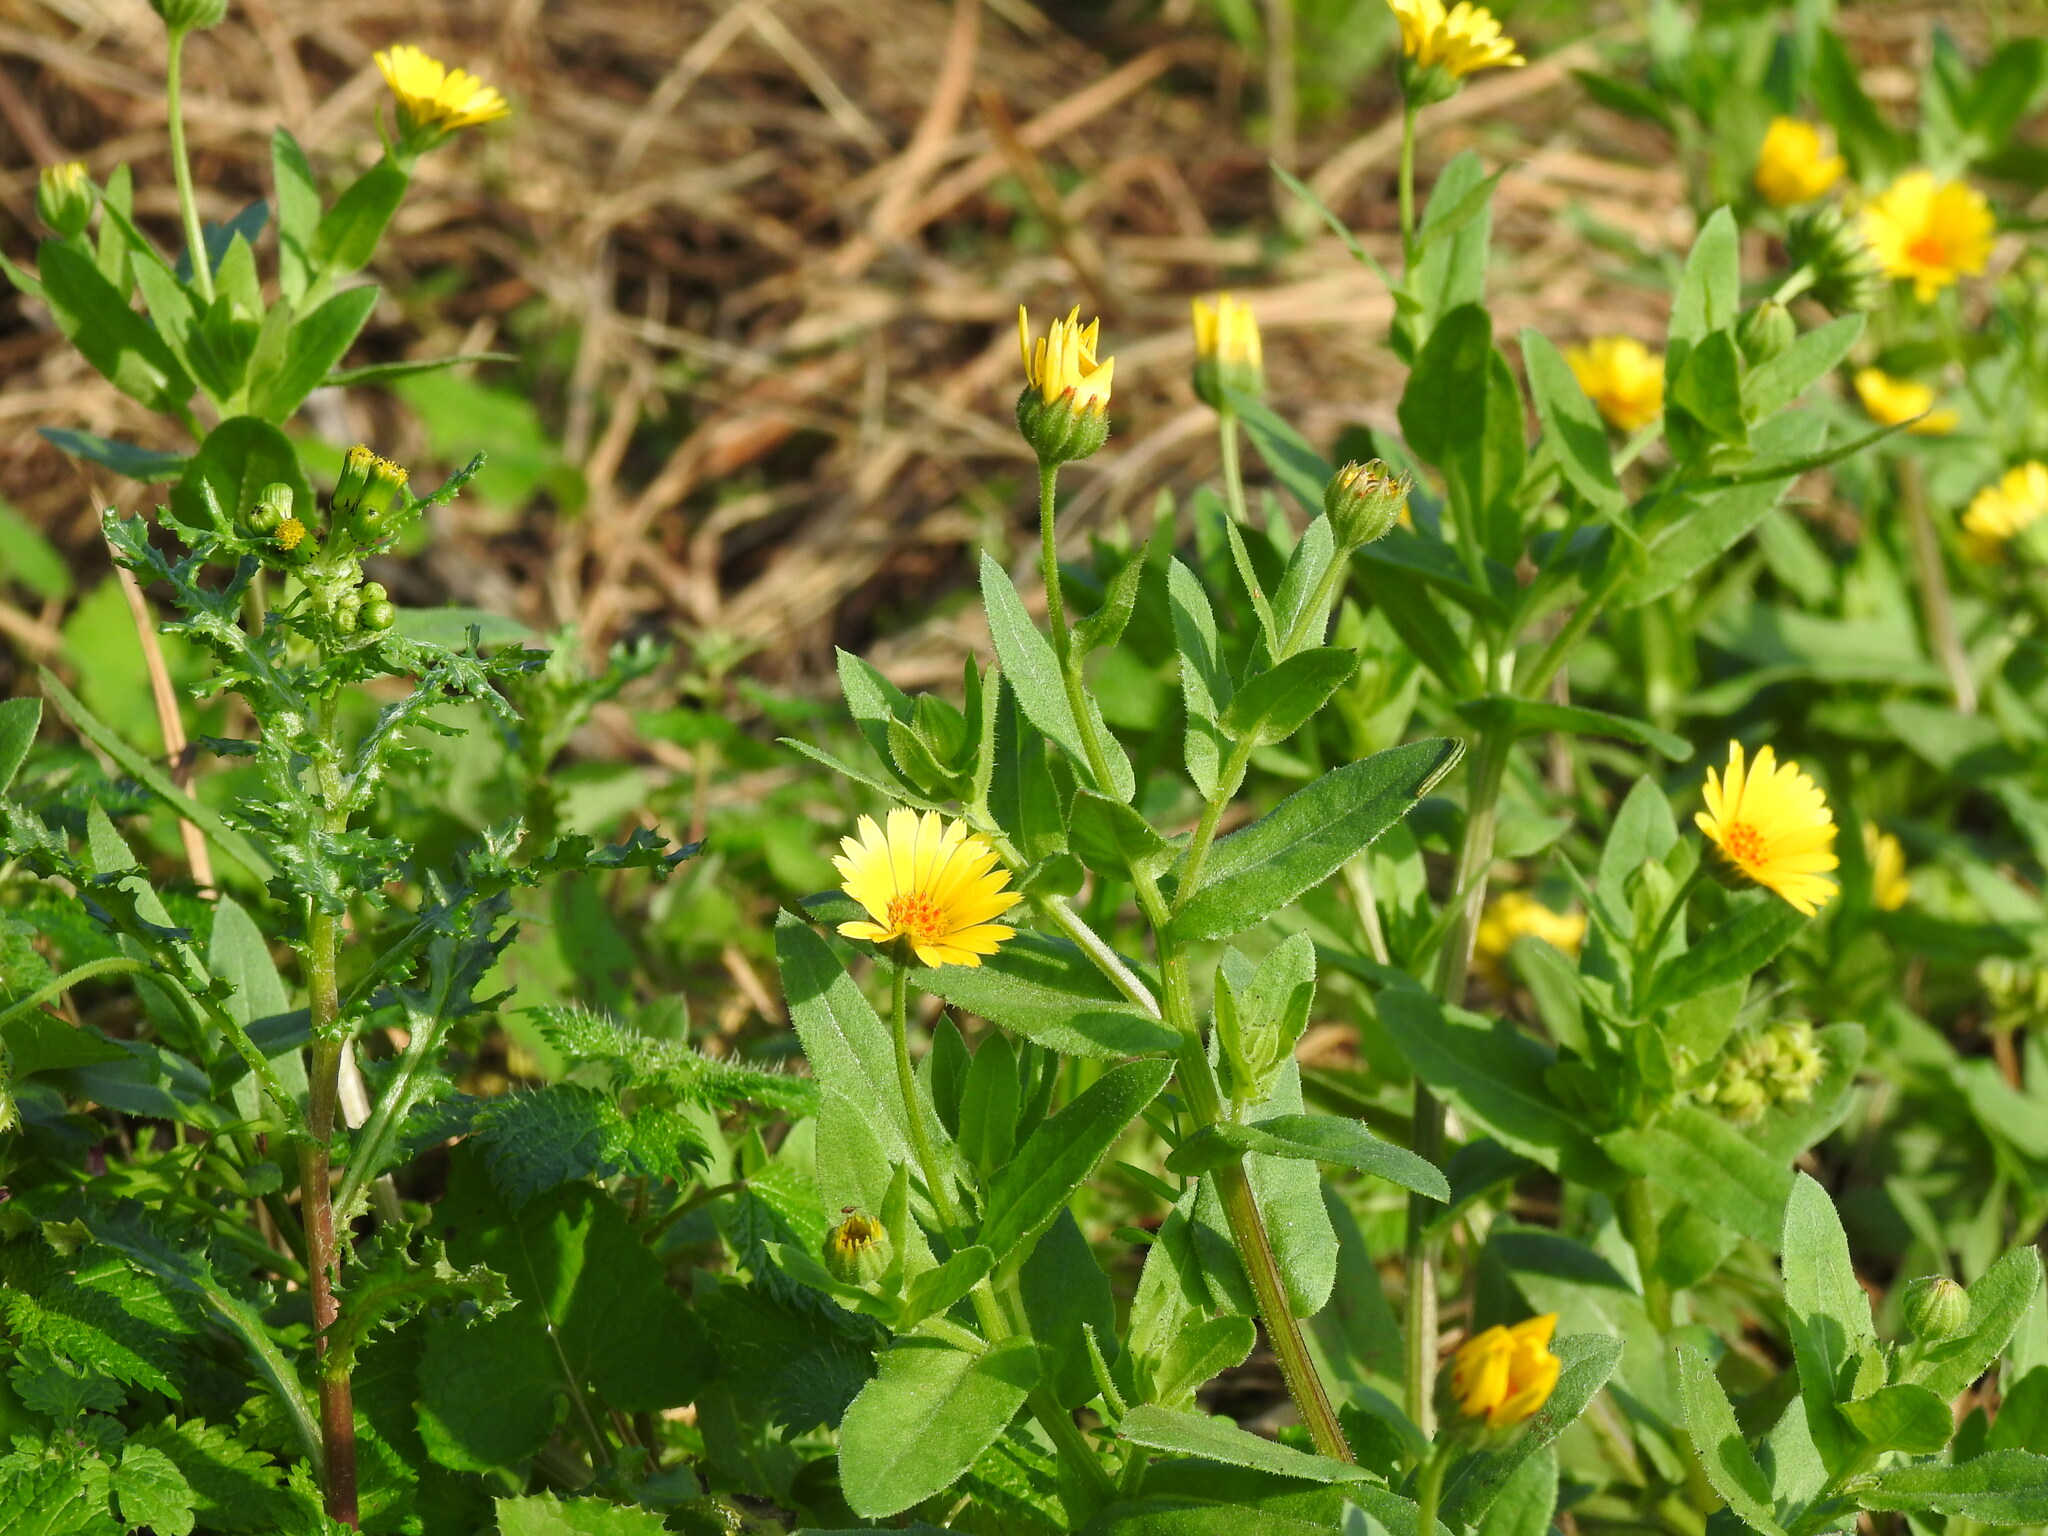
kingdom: Plantae
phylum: Tracheophyta
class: Magnoliopsida
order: Asterales
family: Asteraceae
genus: Calendula
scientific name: Calendula arvensis
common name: Field marigold
